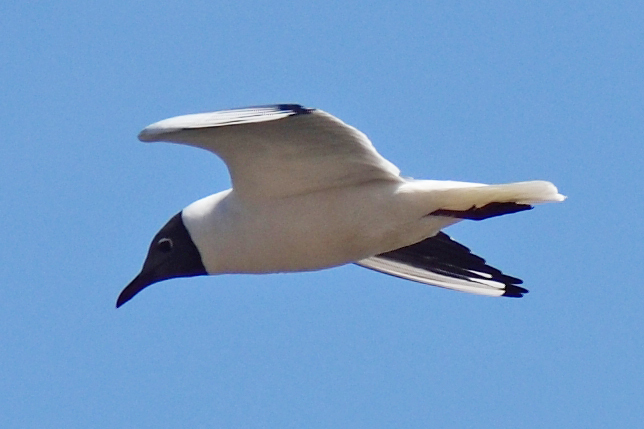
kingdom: Animalia
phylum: Chordata
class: Aves
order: Charadriiformes
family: Laridae
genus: Chroicocephalus
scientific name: Chroicocephalus ridibundus
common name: Black-headed gull
